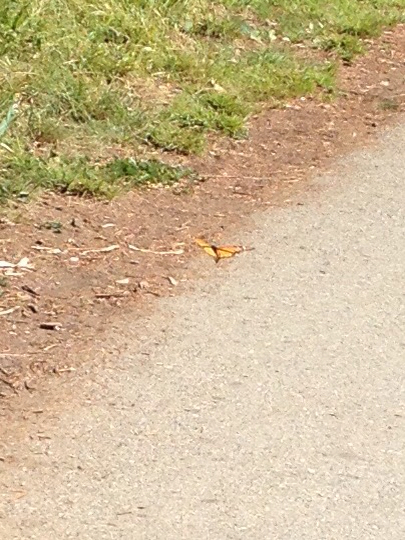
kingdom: Animalia
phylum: Arthropoda
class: Insecta
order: Lepidoptera
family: Nymphalidae
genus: Danaus
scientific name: Danaus plexippus
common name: Monarch
